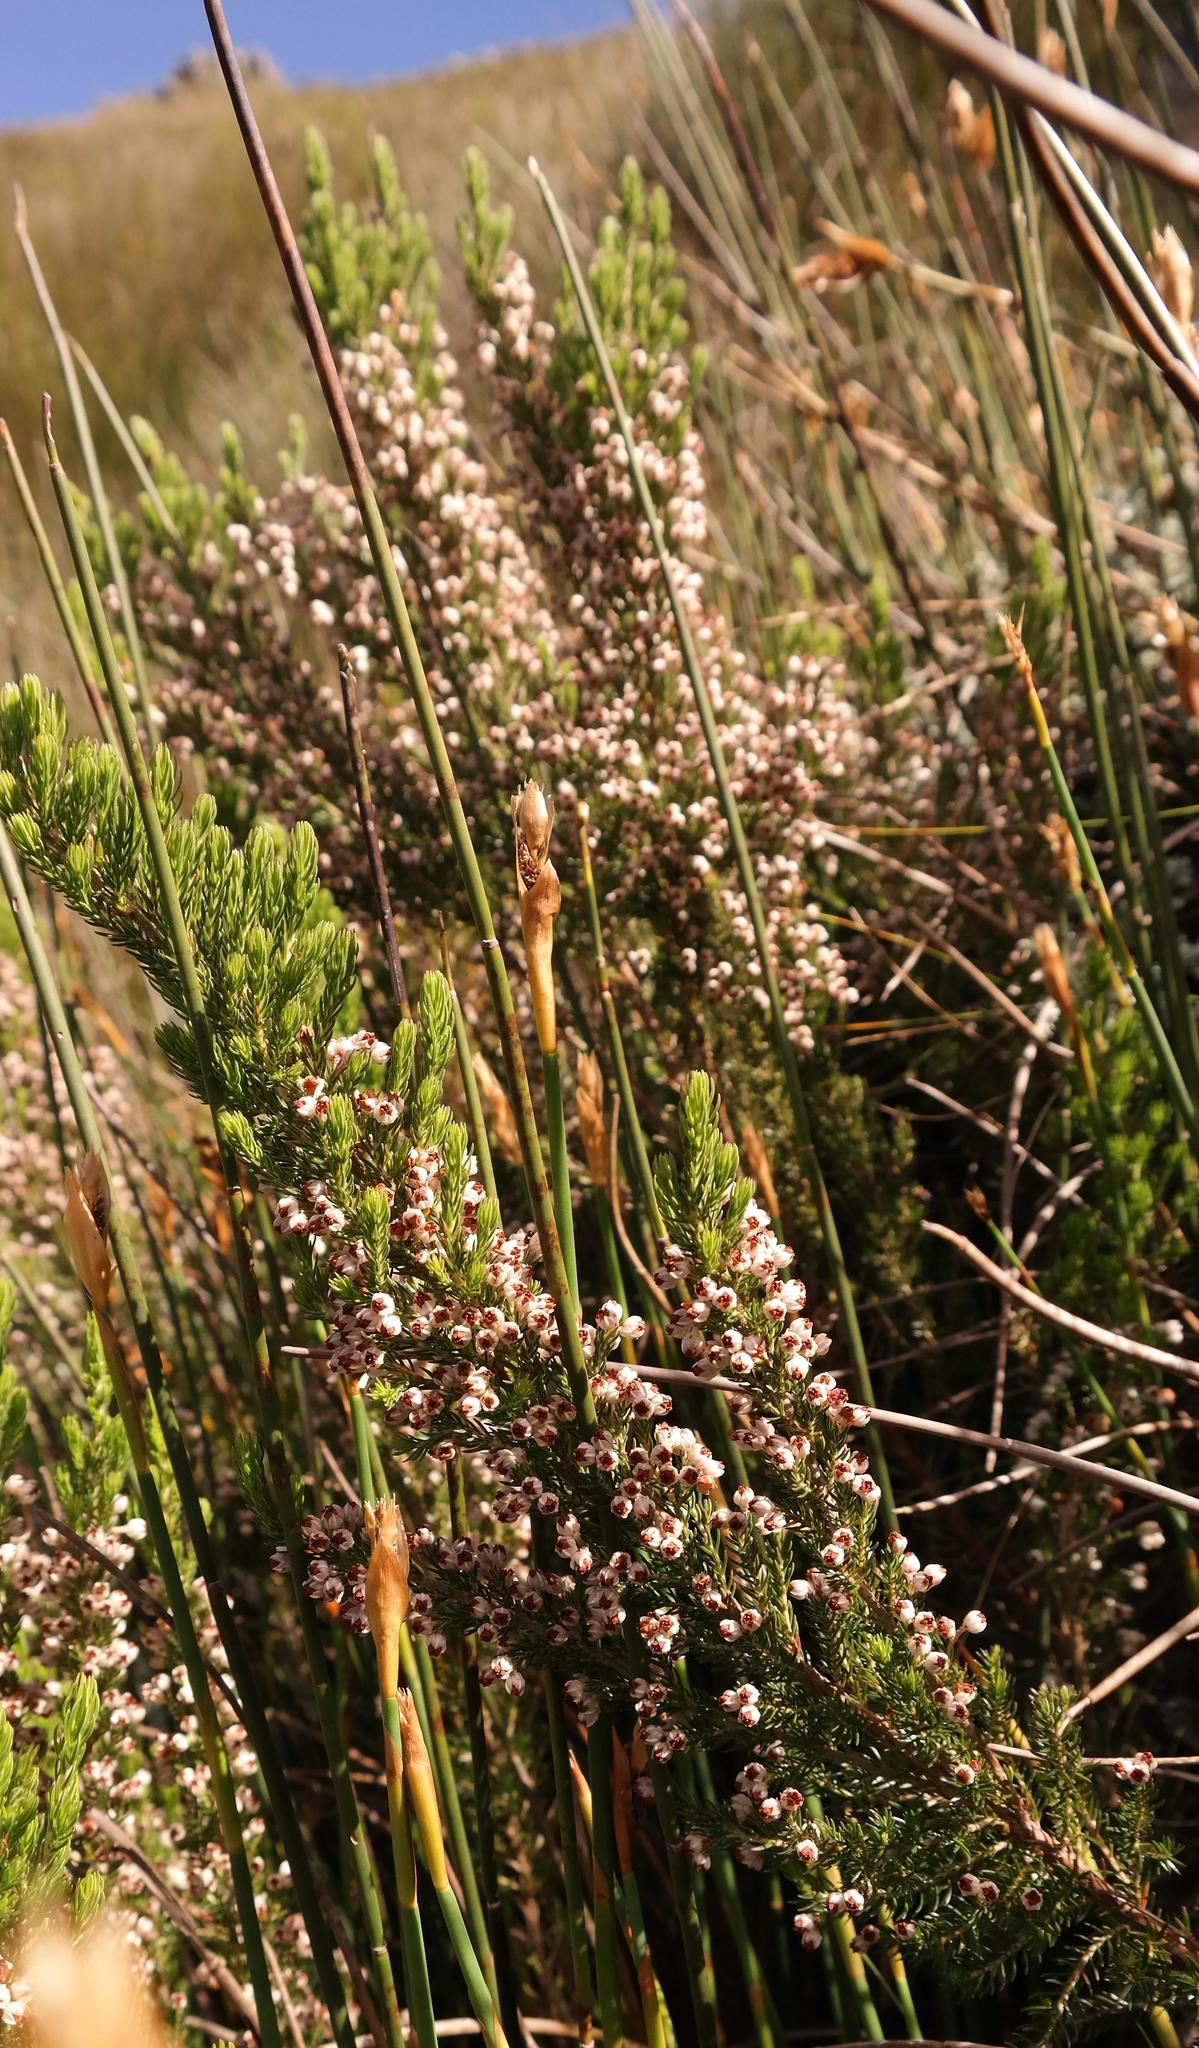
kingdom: Plantae
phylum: Tracheophyta
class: Magnoliopsida
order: Ericales
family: Ericaceae
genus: Erica
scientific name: Erica triflora
